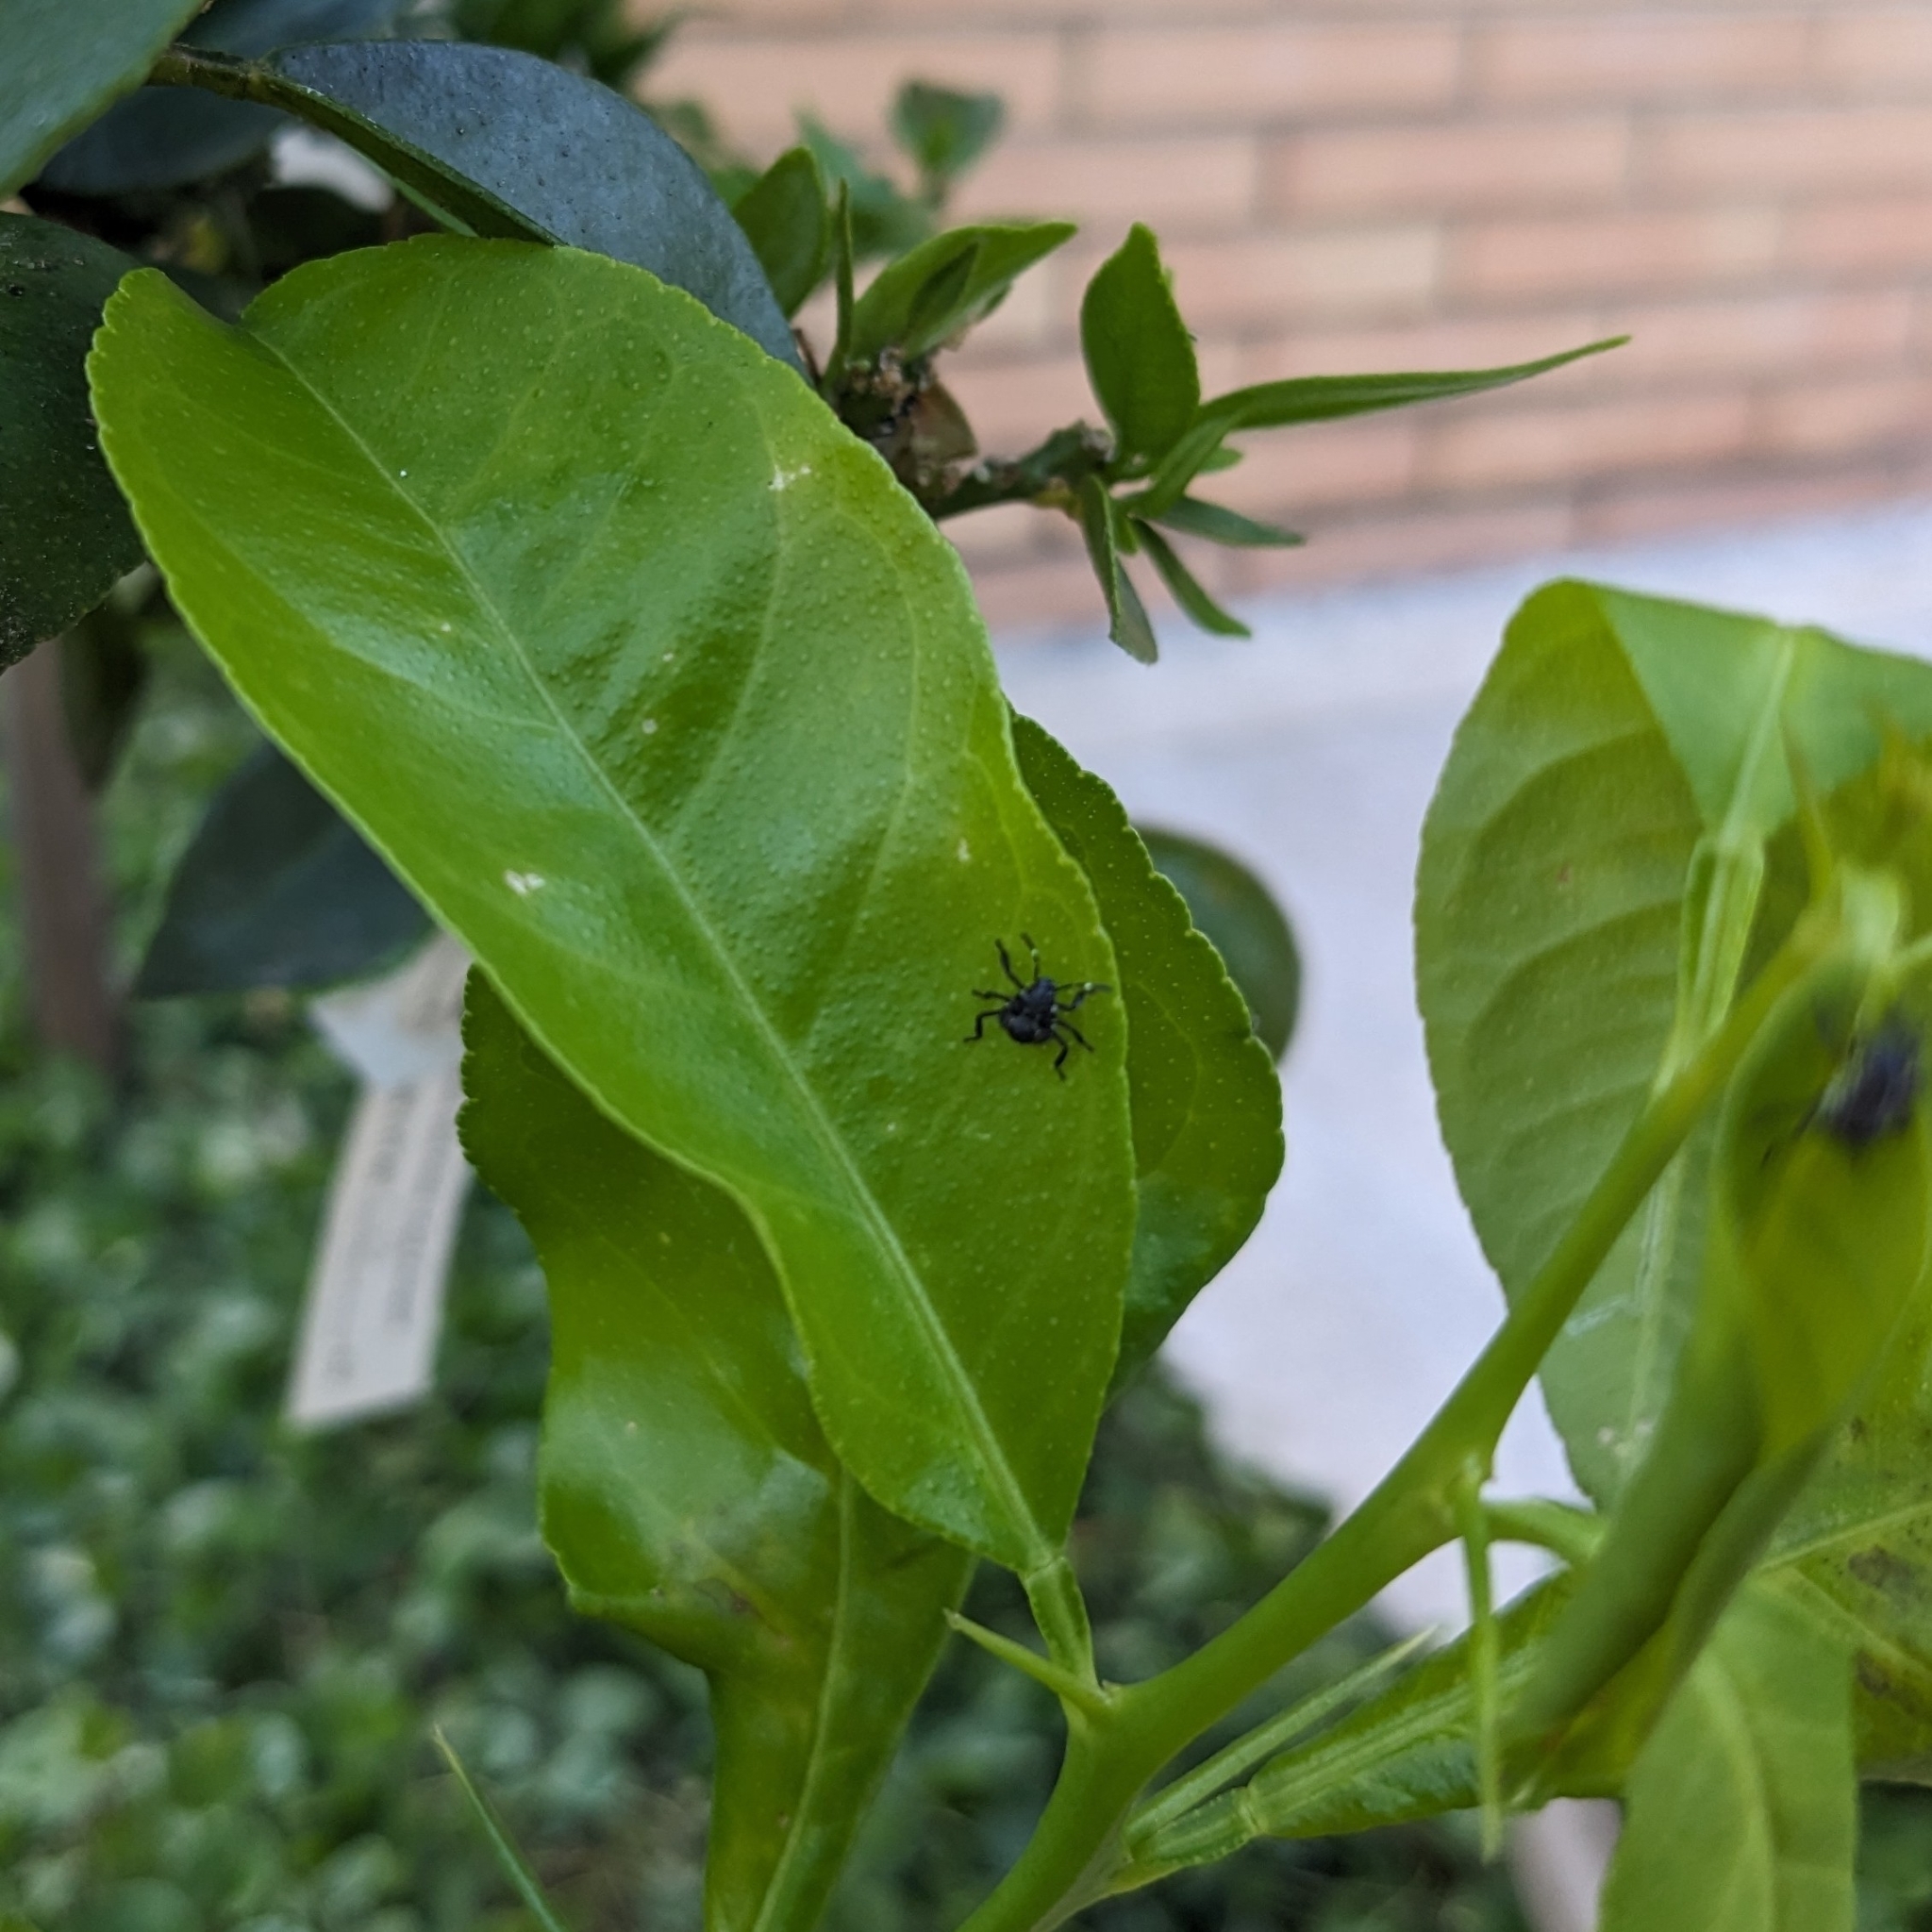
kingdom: Animalia
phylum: Arthropoda
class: Insecta
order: Hemiptera
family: Pentatomidae
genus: Halyomorpha
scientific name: Halyomorpha halys
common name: Brown marmorated stink bug
